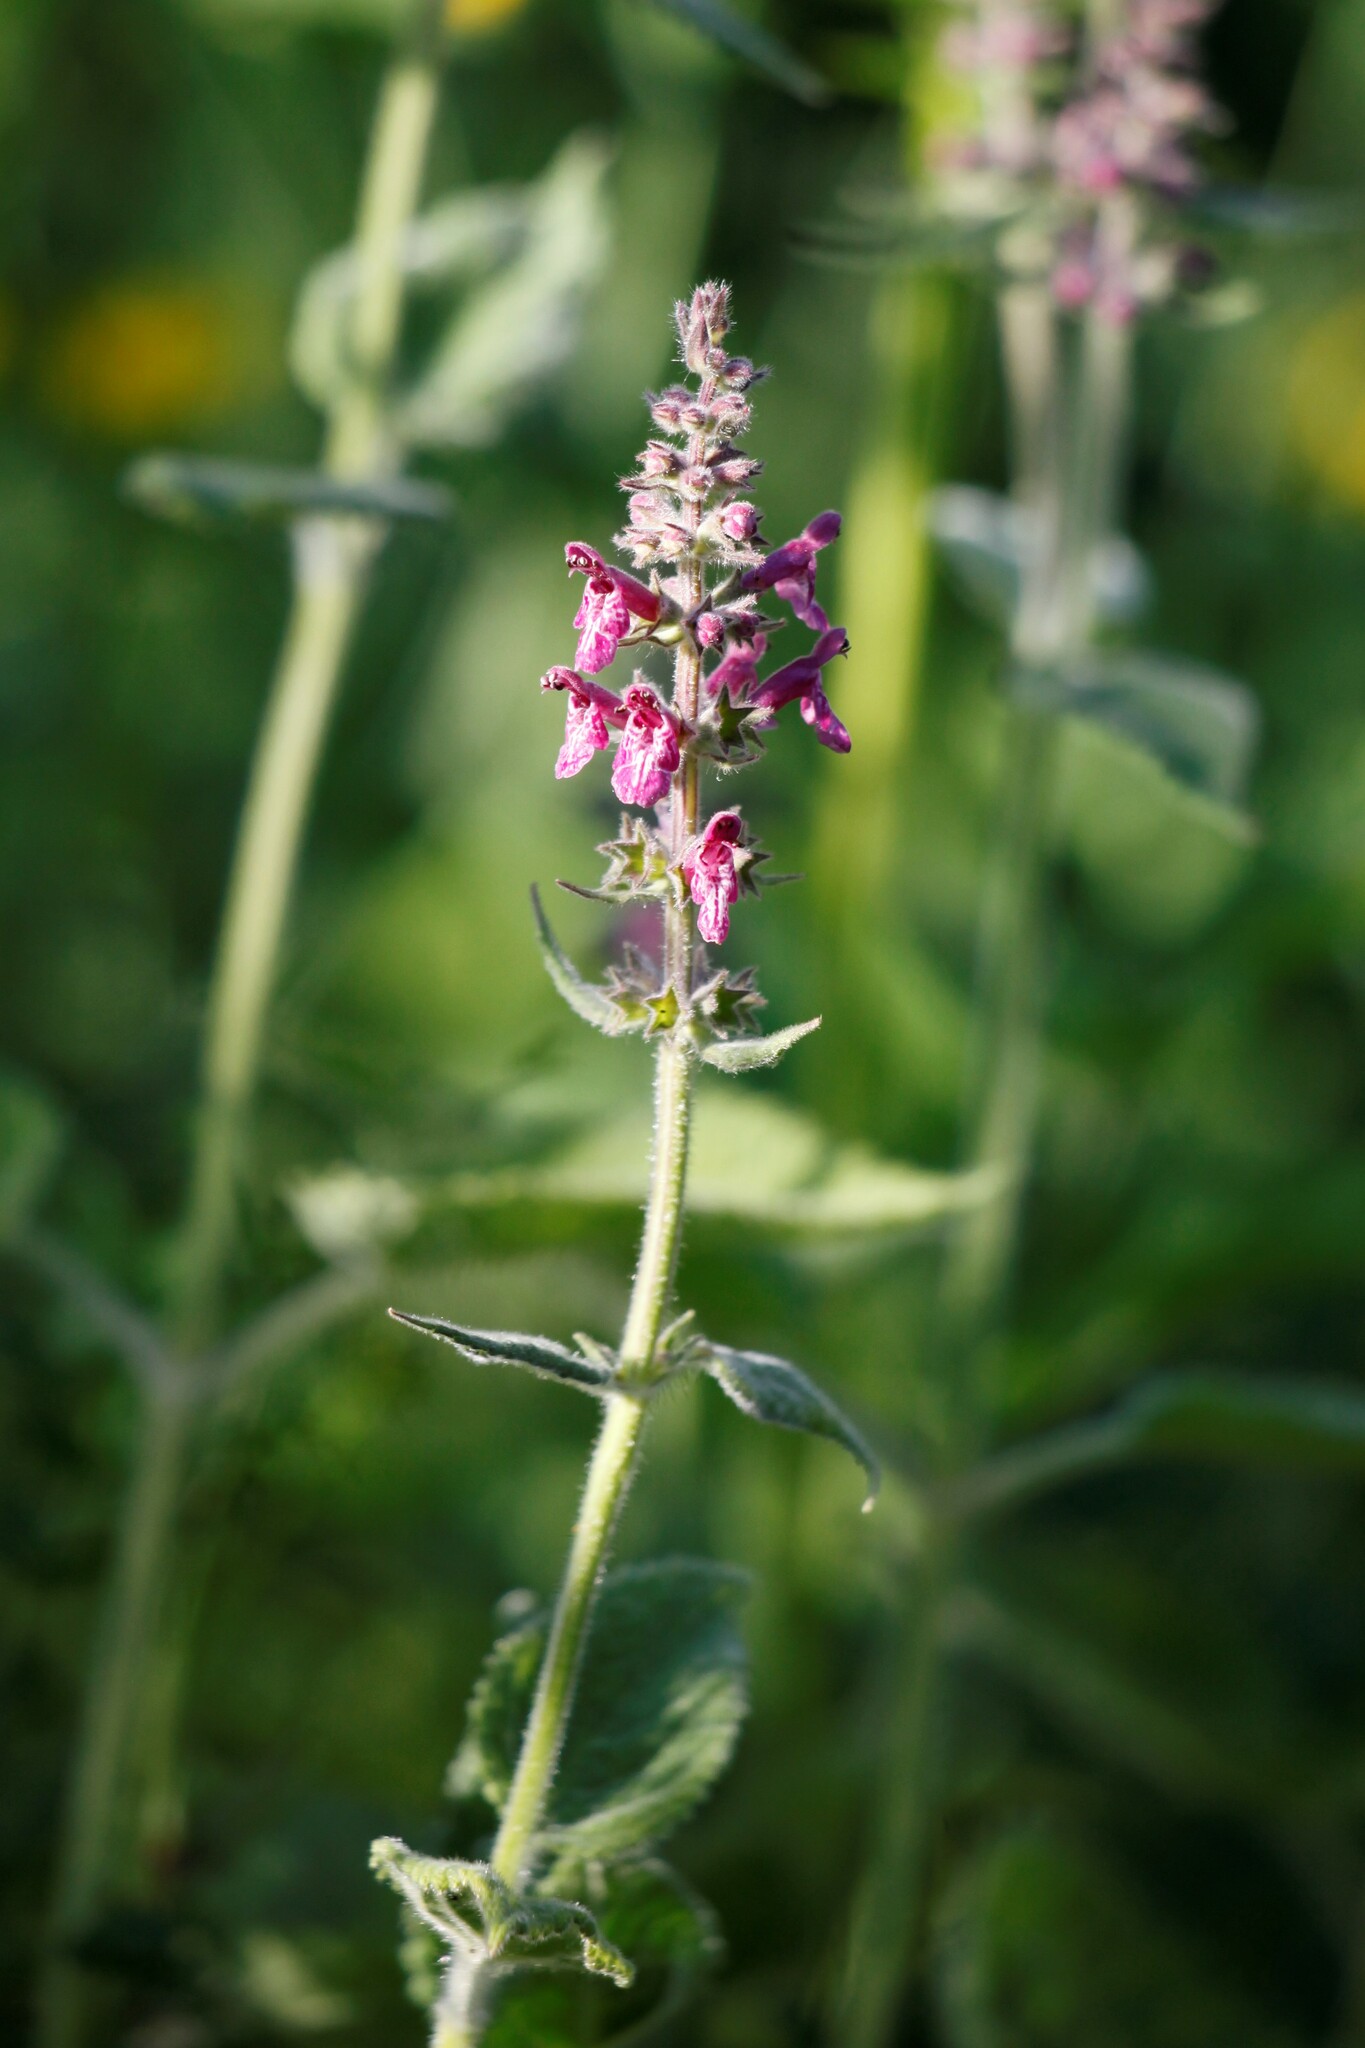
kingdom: Plantae
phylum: Tracheophyta
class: Magnoliopsida
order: Lamiales
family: Lamiaceae
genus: Stachys
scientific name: Stachys sylvatica
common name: Hedge woundwort
